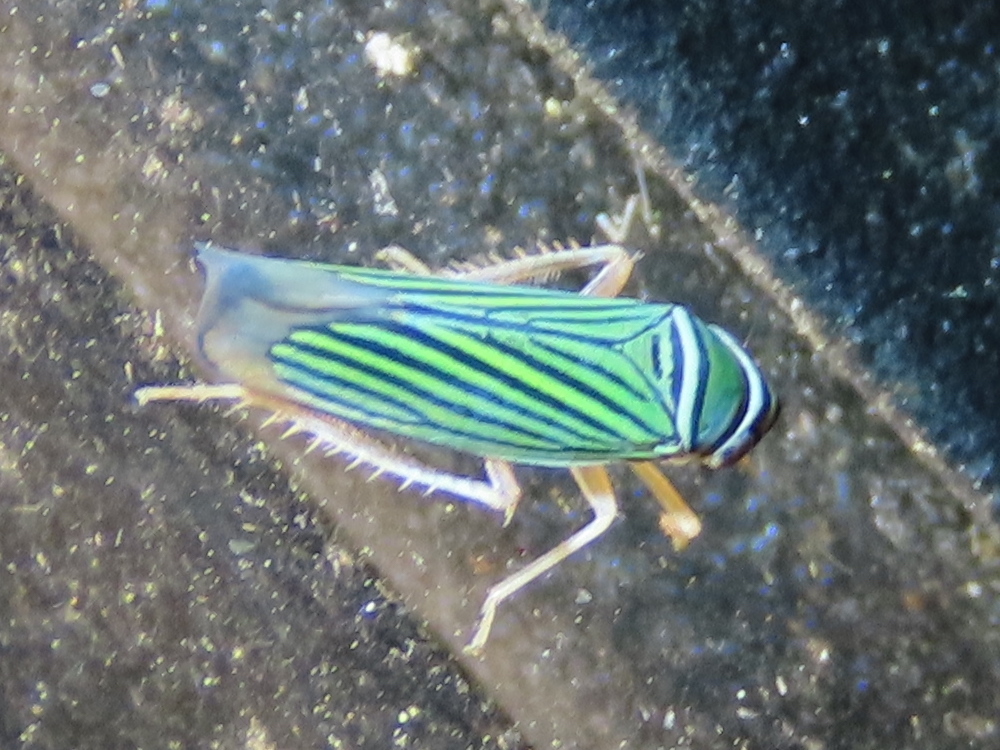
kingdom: Animalia
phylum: Arthropoda
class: Insecta
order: Hemiptera
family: Cicadellidae
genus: Tylozygus
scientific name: Tylozygus bifidus
